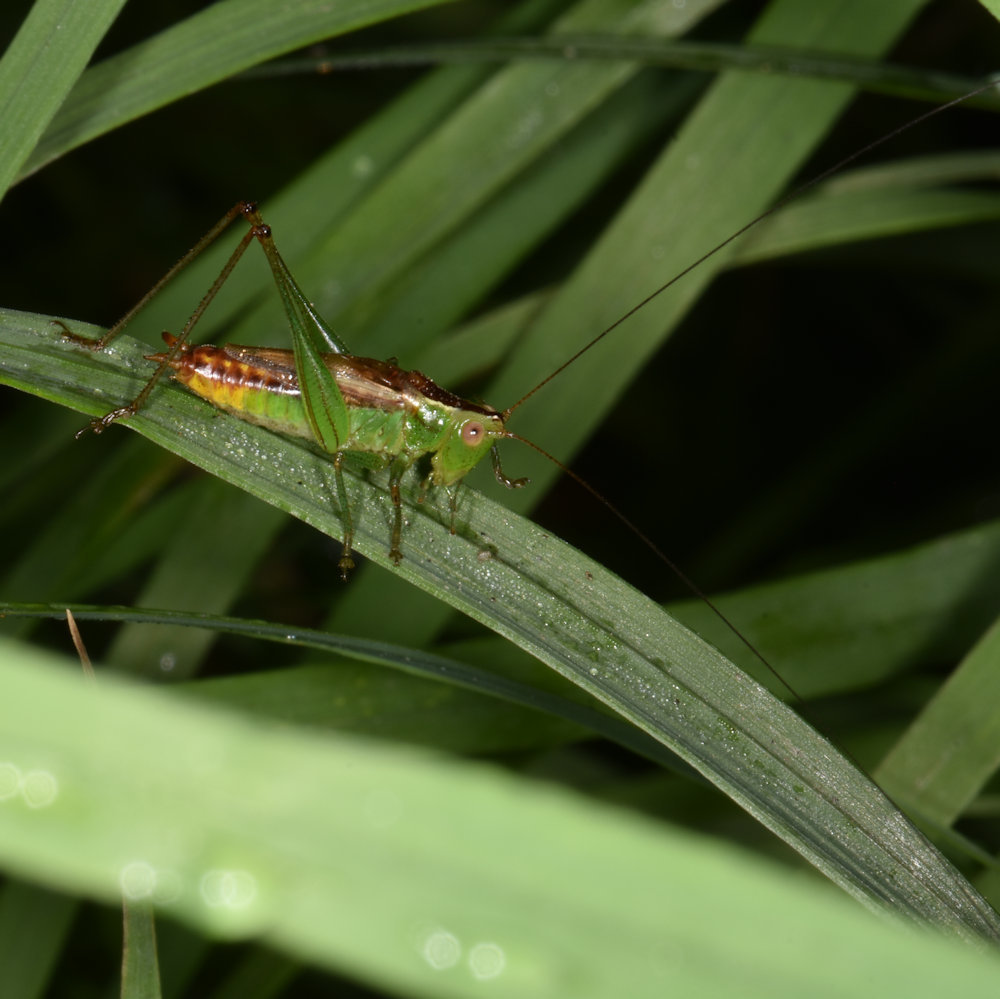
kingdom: Animalia
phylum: Arthropoda
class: Insecta
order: Orthoptera
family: Tettigoniidae
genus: Conocephalus
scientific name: Conocephalus brevipennis
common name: Short-winged meadow katydid
